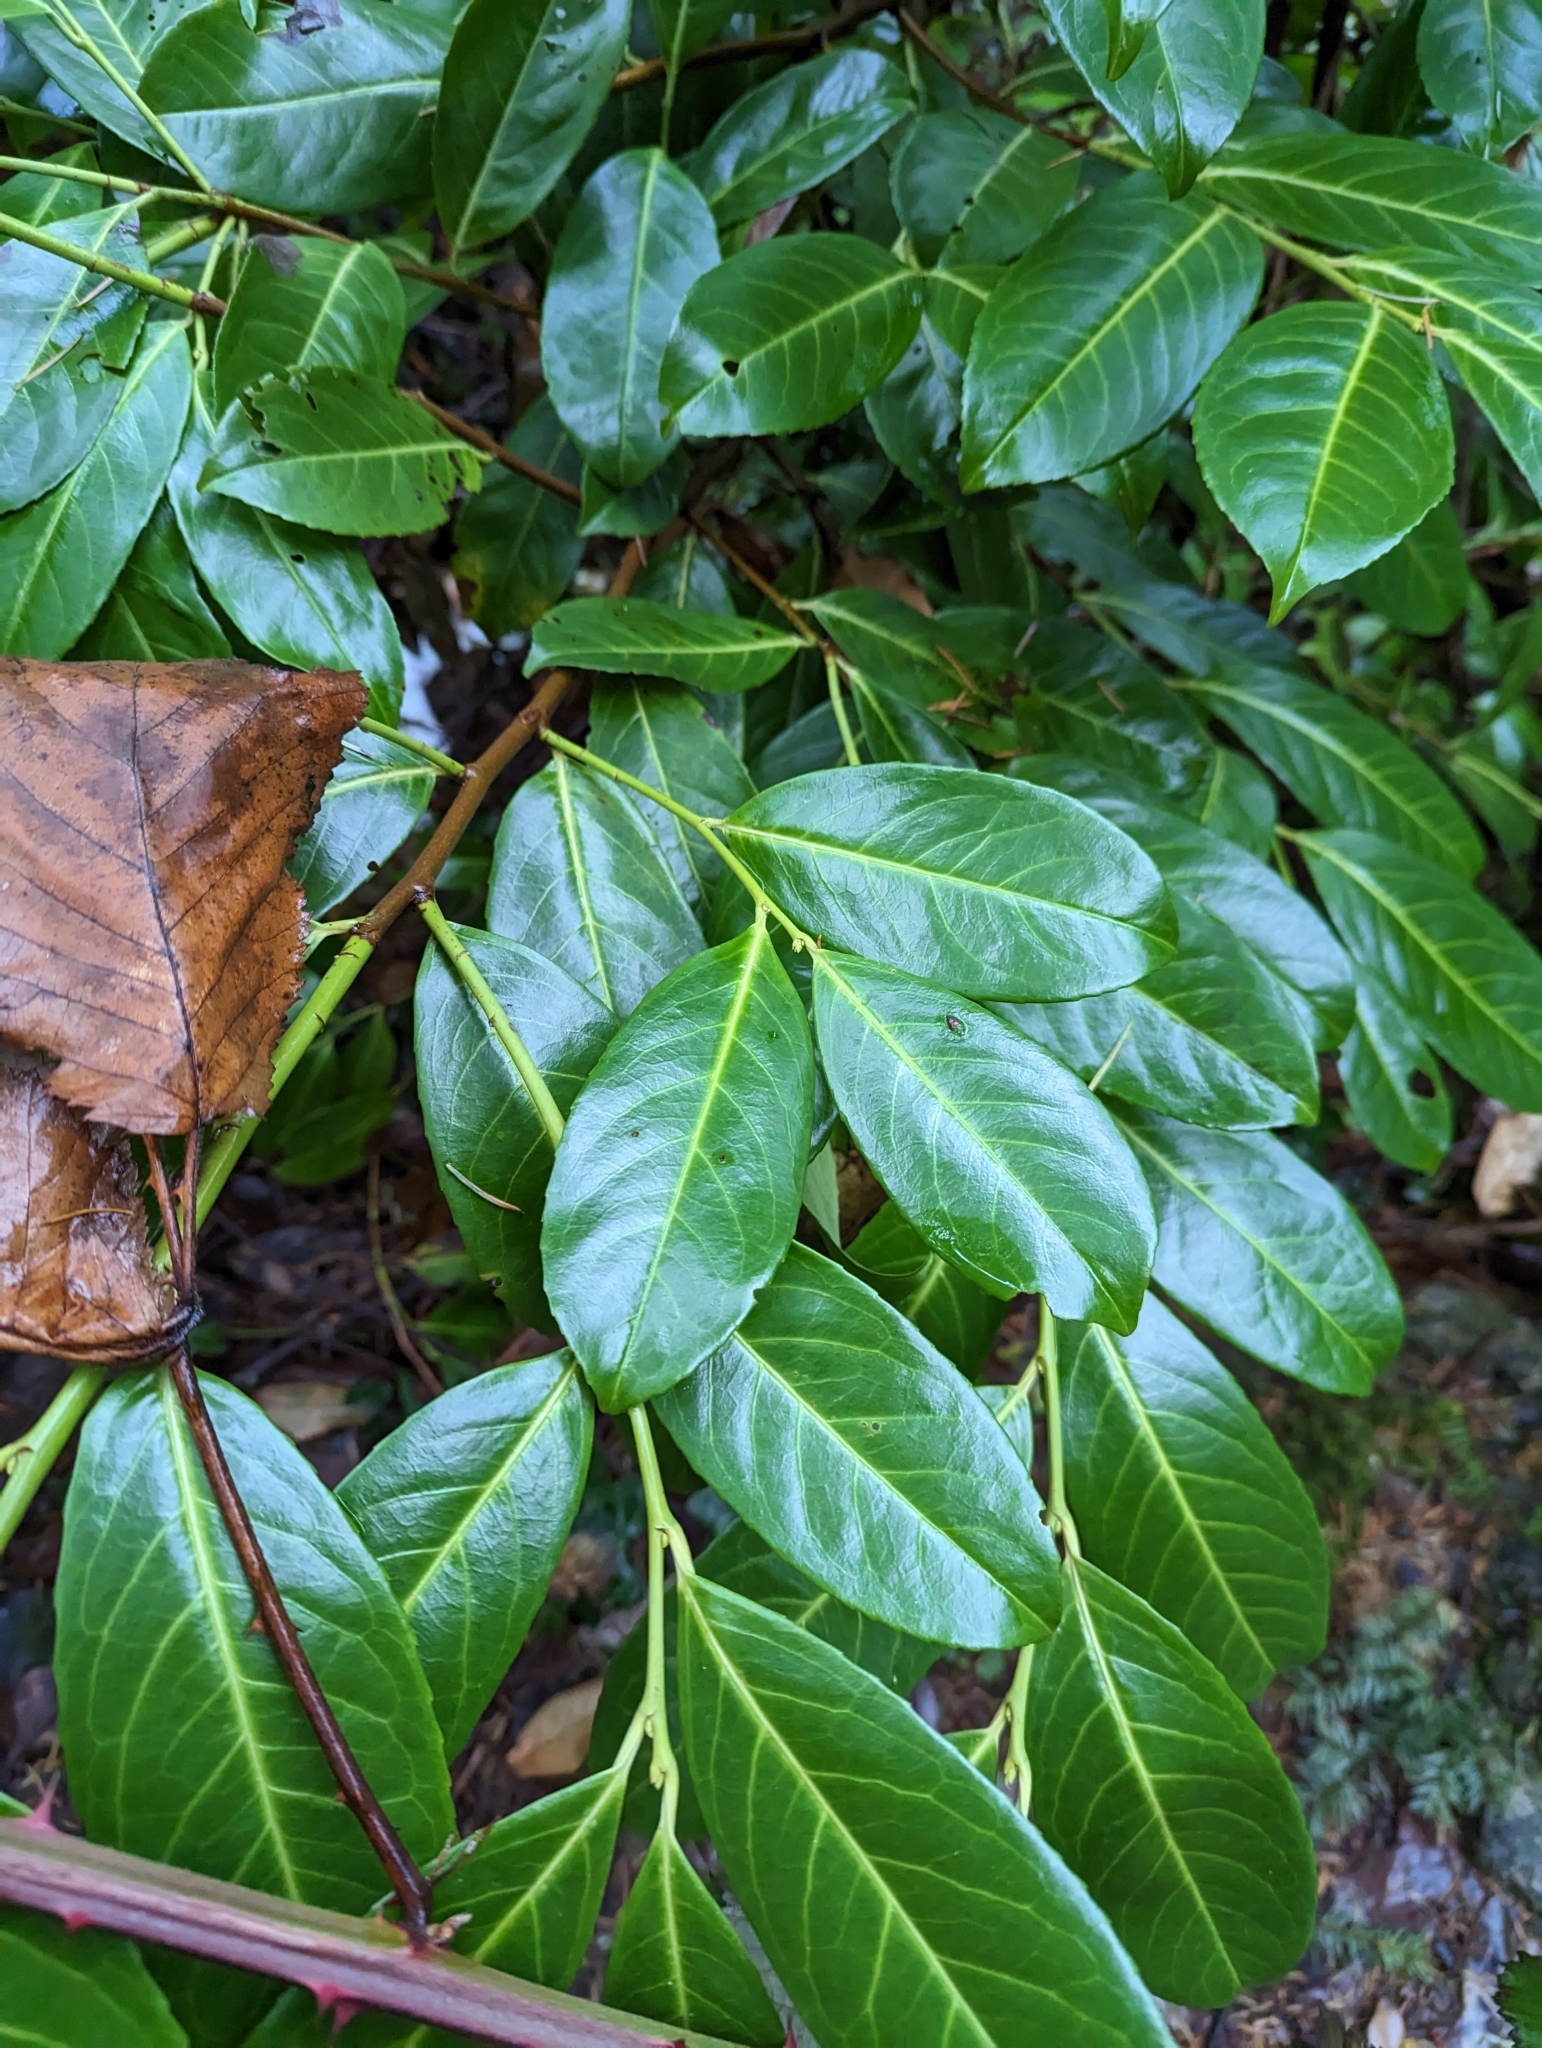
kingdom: Plantae
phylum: Tracheophyta
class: Magnoliopsida
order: Rosales
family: Rosaceae
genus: Prunus
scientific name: Prunus laurocerasus
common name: Cherry laurel
